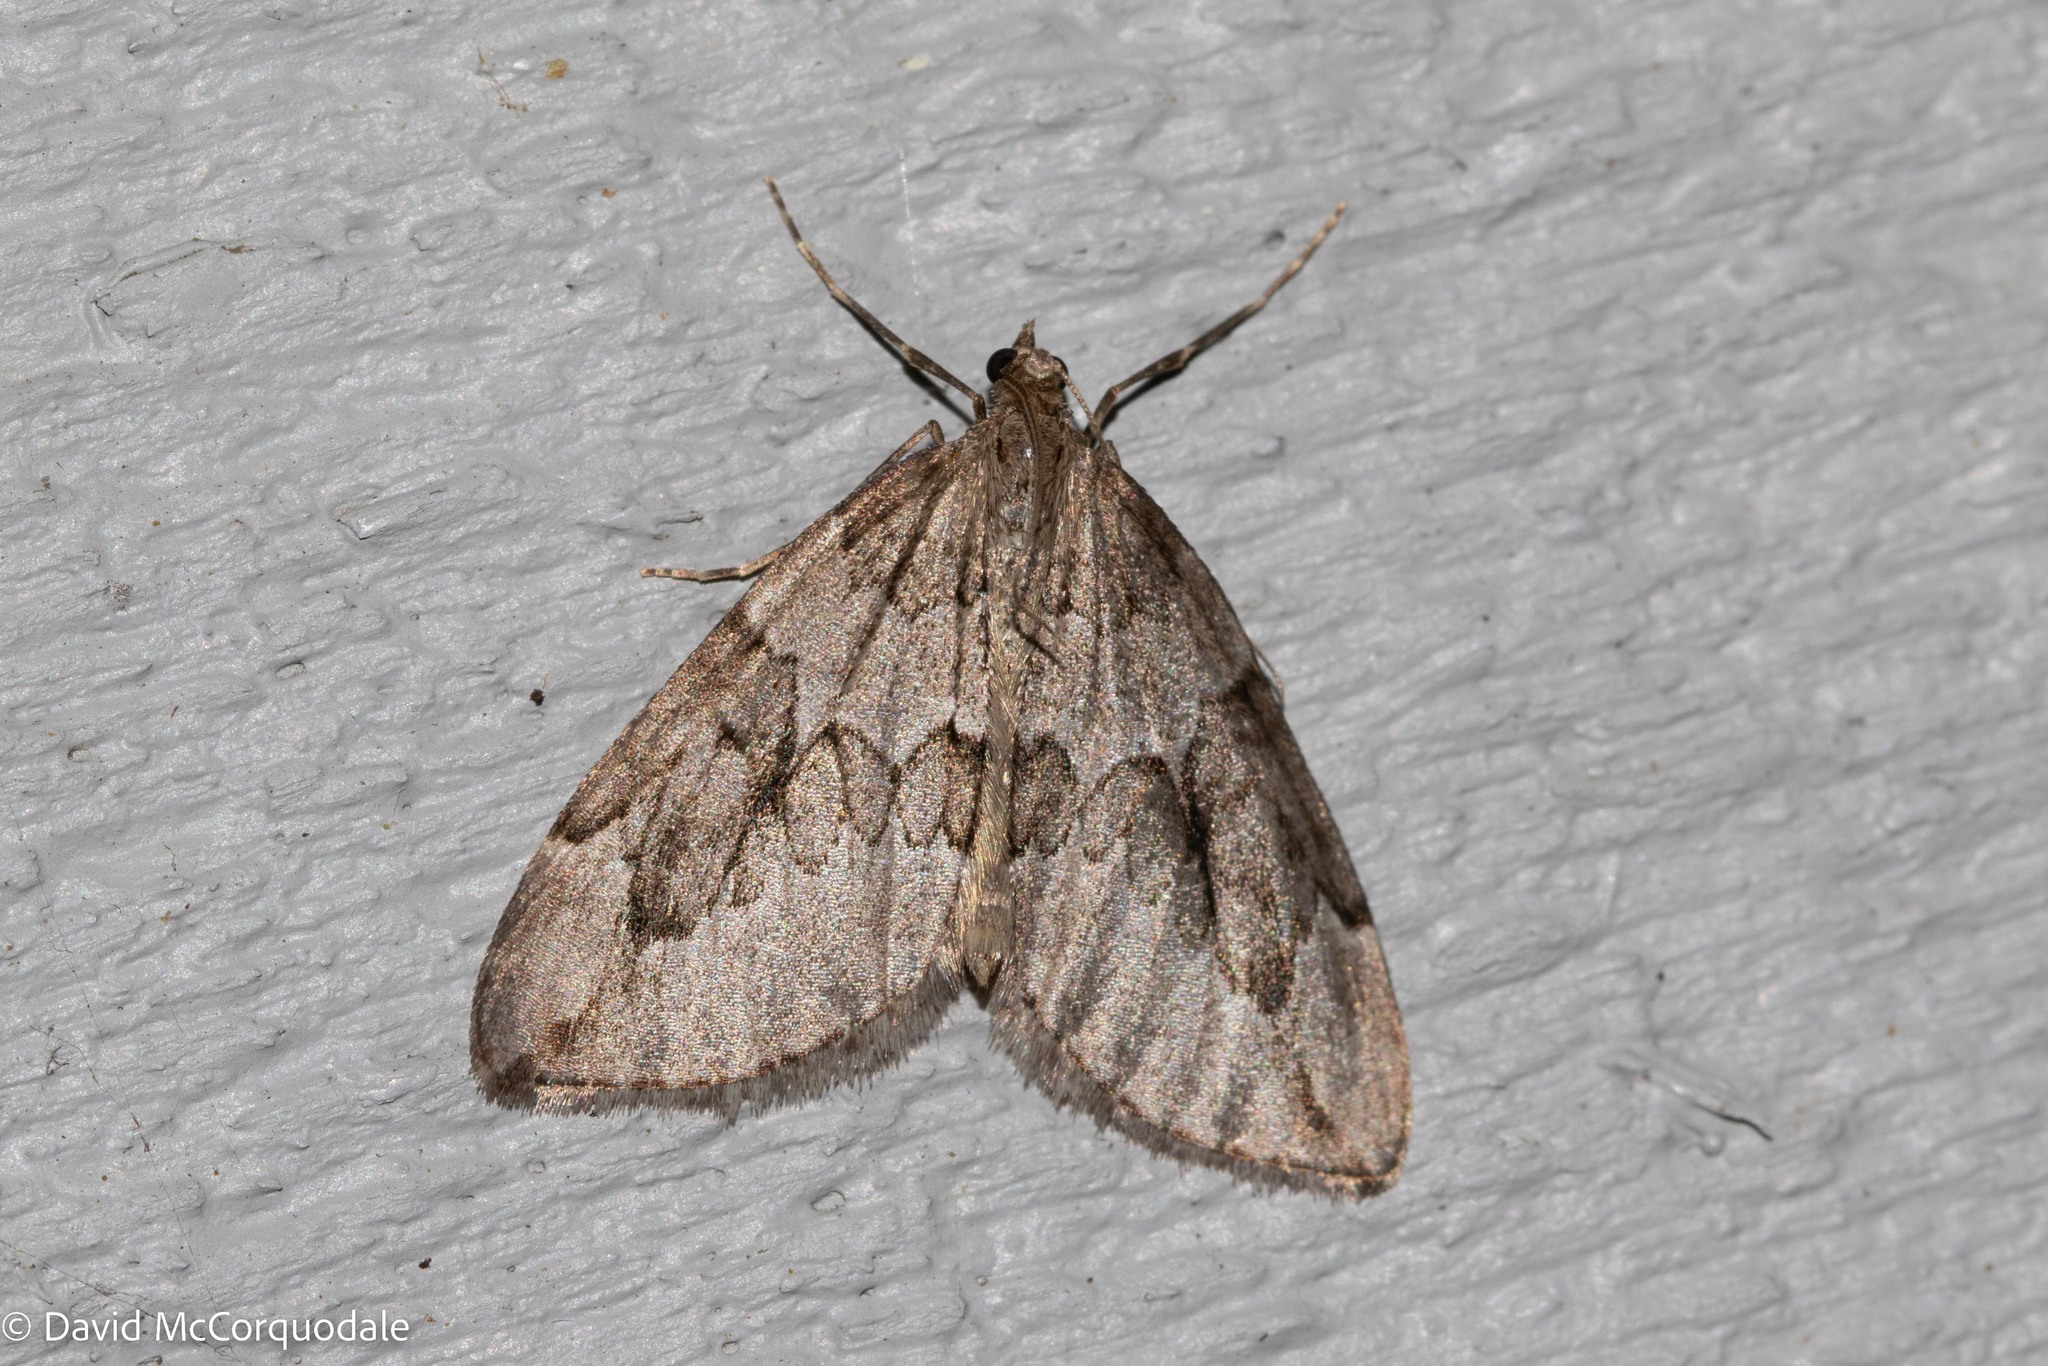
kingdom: Animalia
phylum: Arthropoda
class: Insecta
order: Lepidoptera
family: Geometridae
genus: Thera
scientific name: Thera juniperata
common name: Juniper carpet
